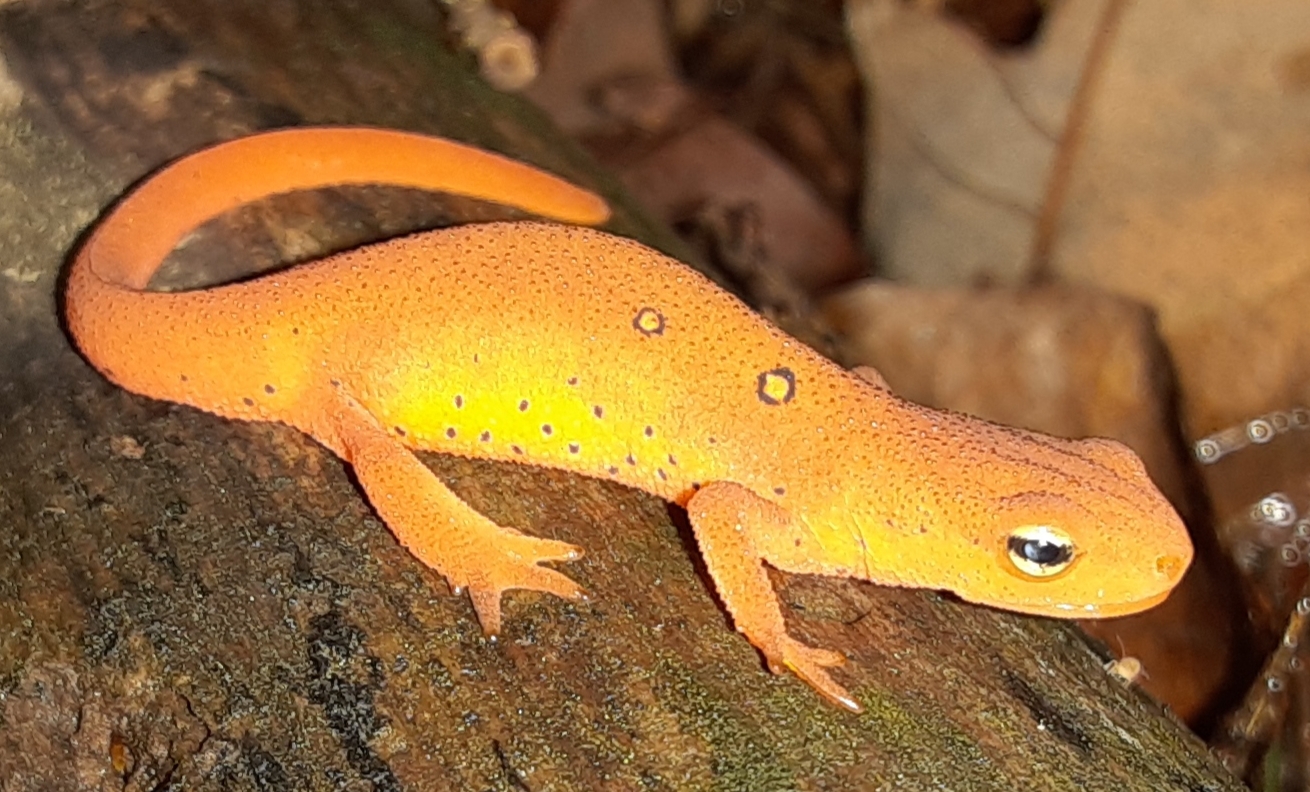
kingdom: Animalia
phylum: Chordata
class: Amphibia
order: Caudata
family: Salamandridae
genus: Notophthalmus
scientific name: Notophthalmus viridescens
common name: Eastern newt
